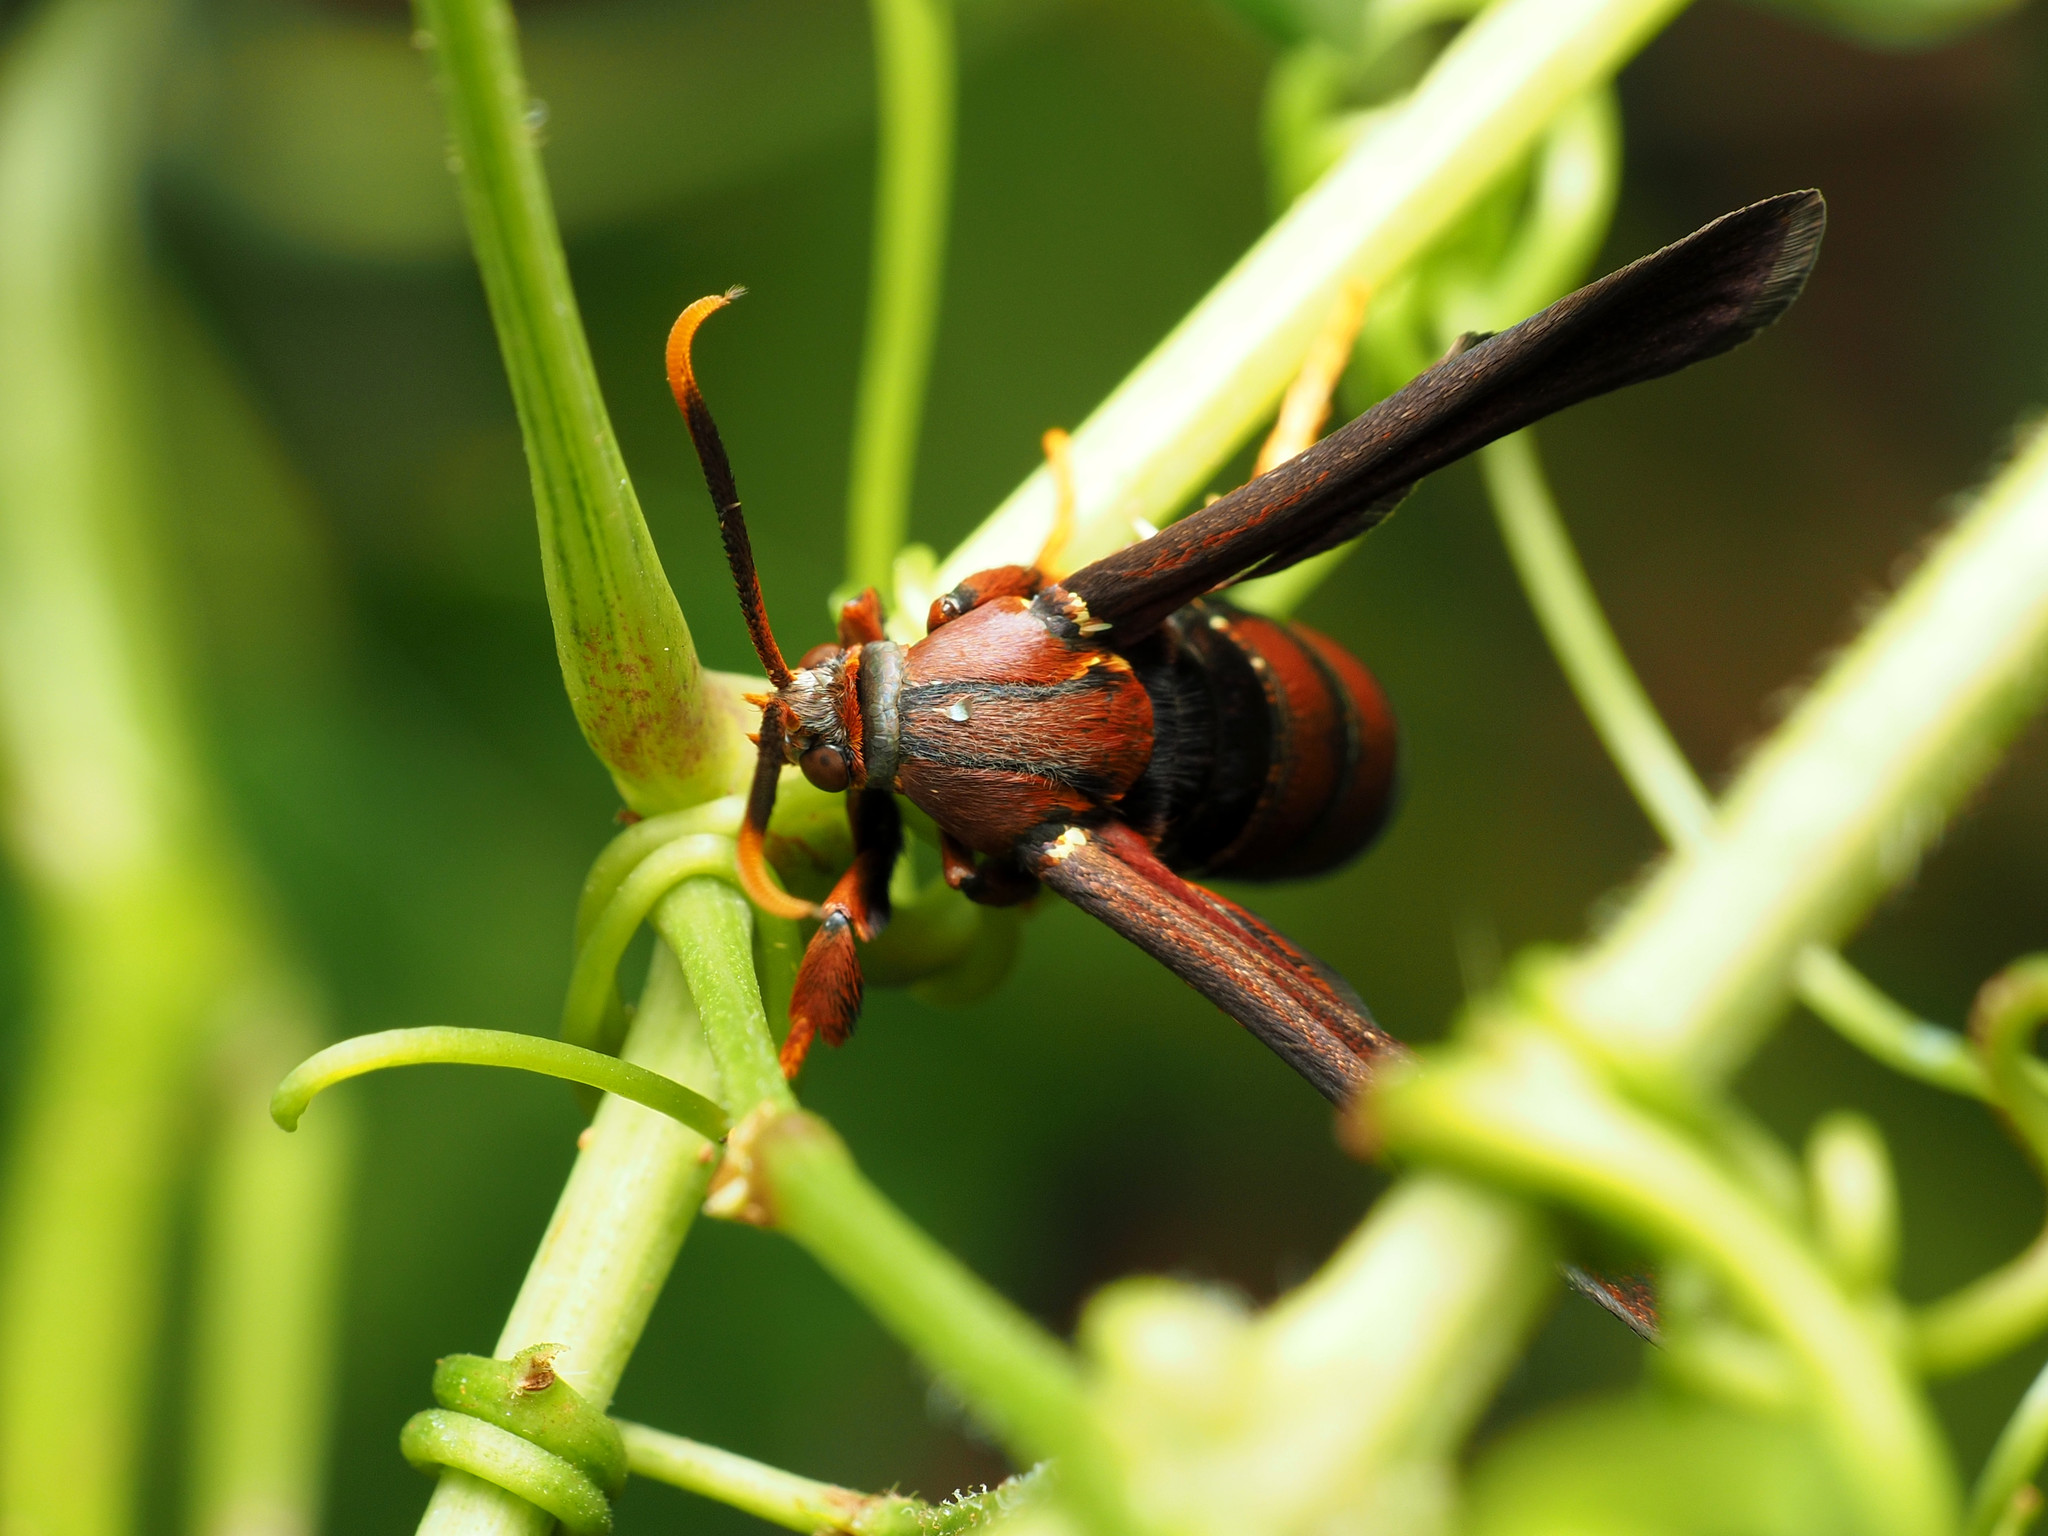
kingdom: Animalia
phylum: Arthropoda
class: Insecta
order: Lepidoptera
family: Sesiidae
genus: Vitacea
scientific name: Vitacea polistiformis
